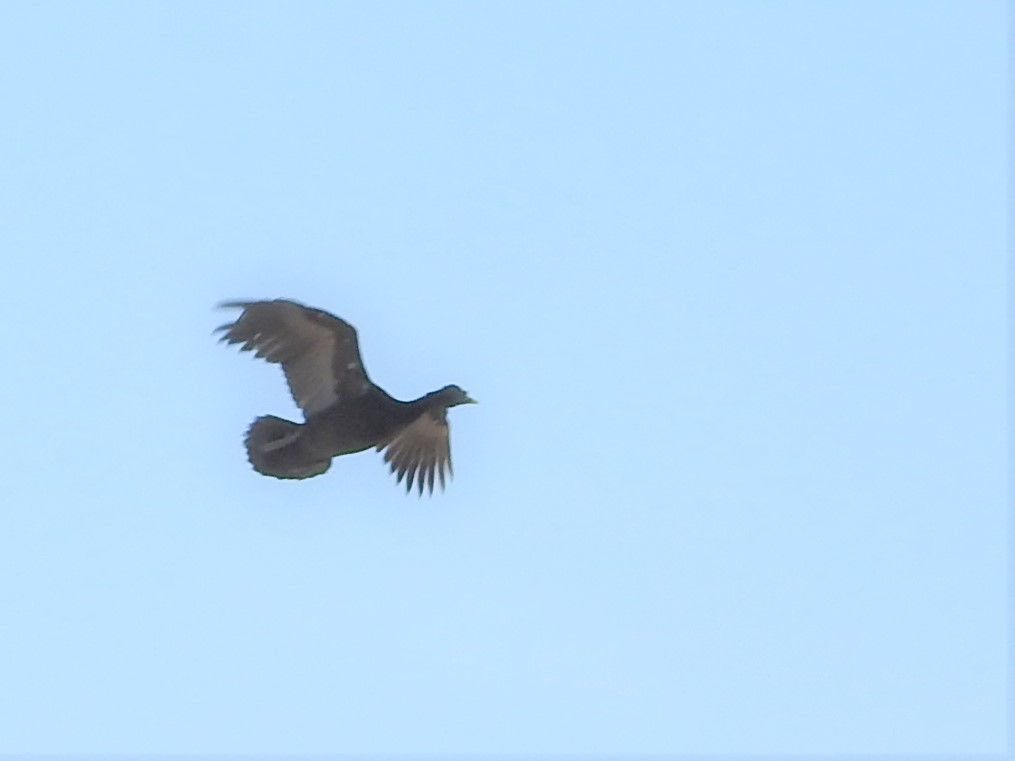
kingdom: Animalia
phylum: Chordata
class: Aves
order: Anseriformes
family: Anatidae
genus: Cairina
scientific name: Cairina moschata
